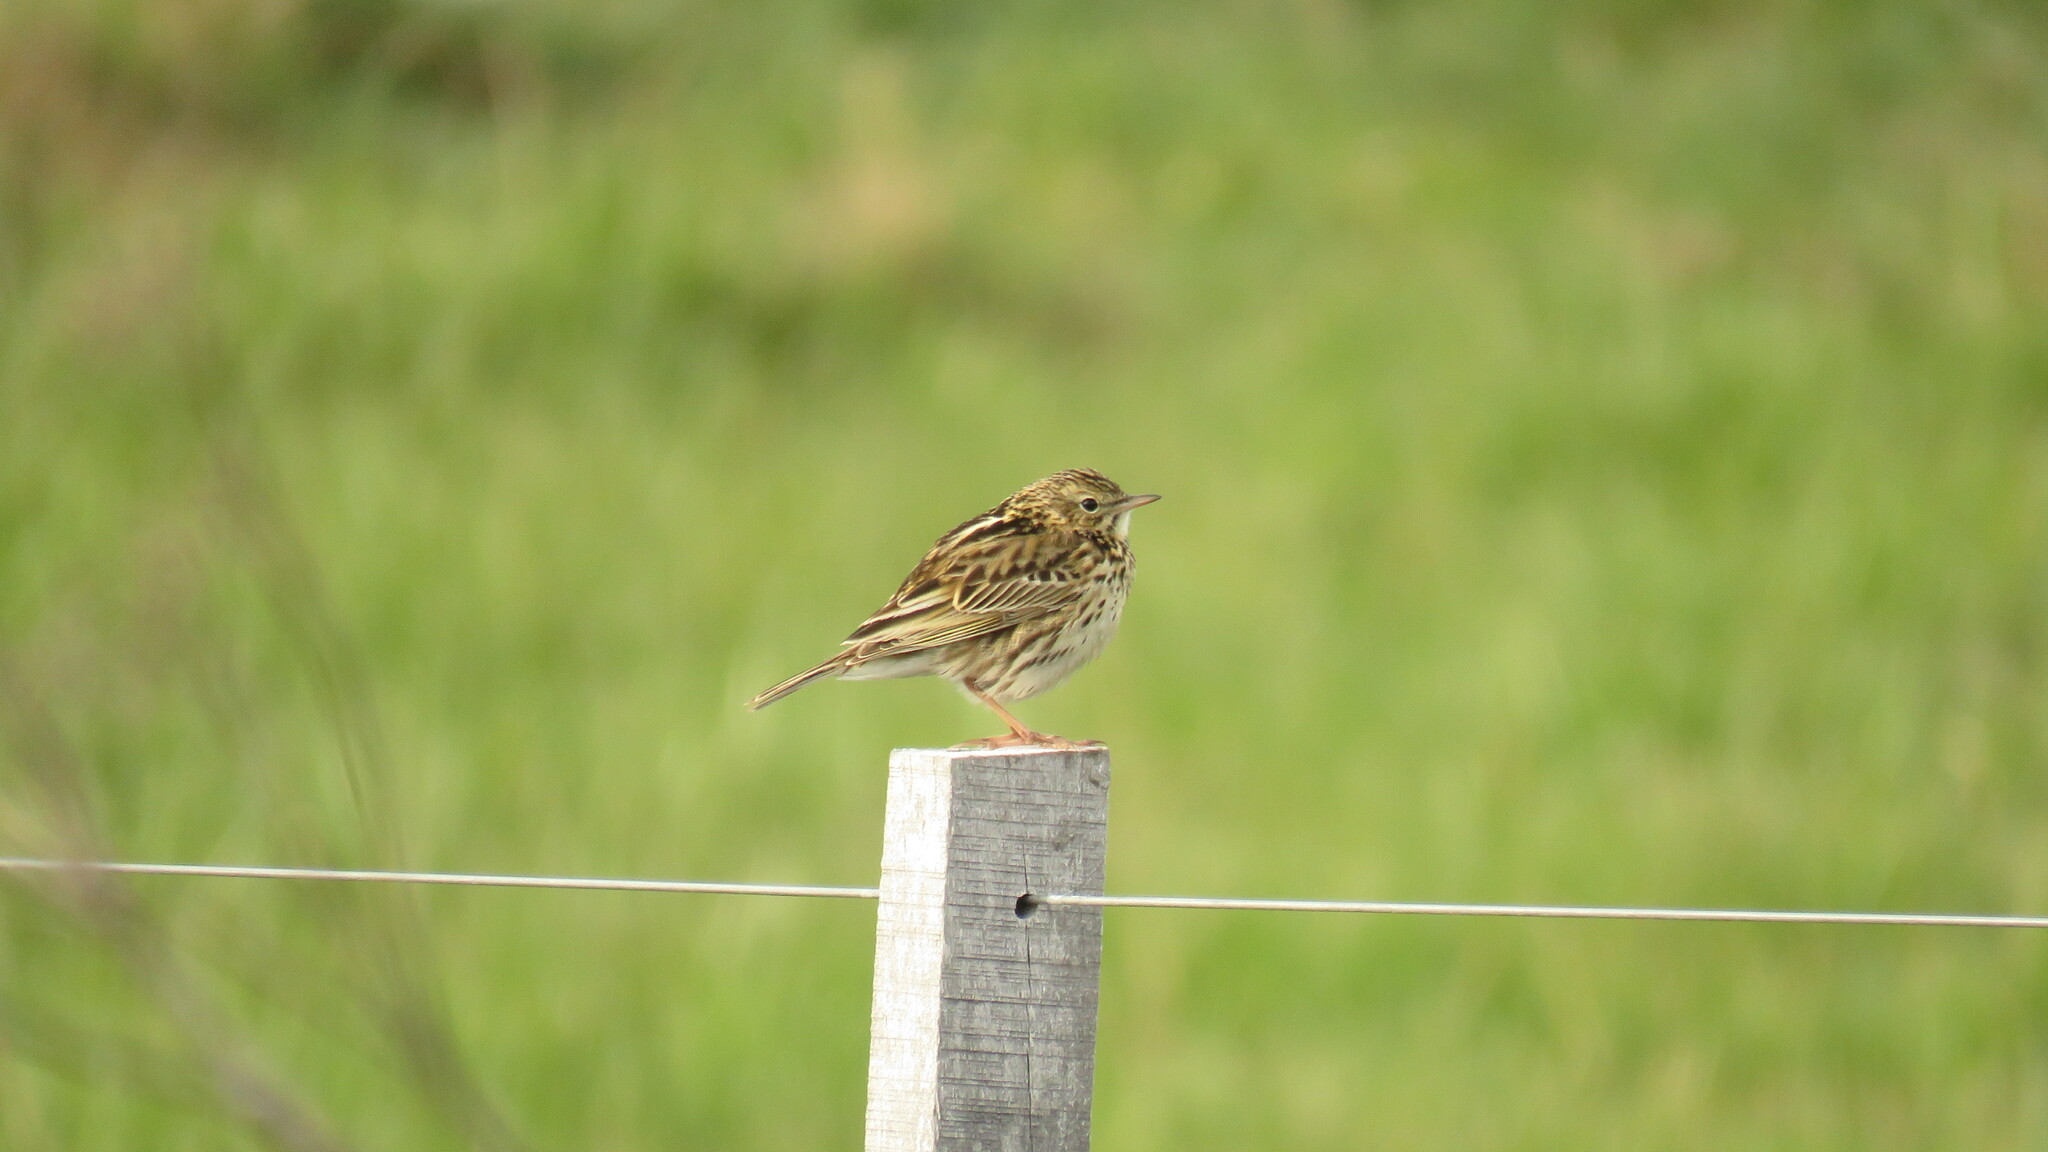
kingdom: Animalia
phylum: Chordata
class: Aves
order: Passeriformes
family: Motacillidae
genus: Anthus
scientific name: Anthus correndera
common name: Correndera pipit
